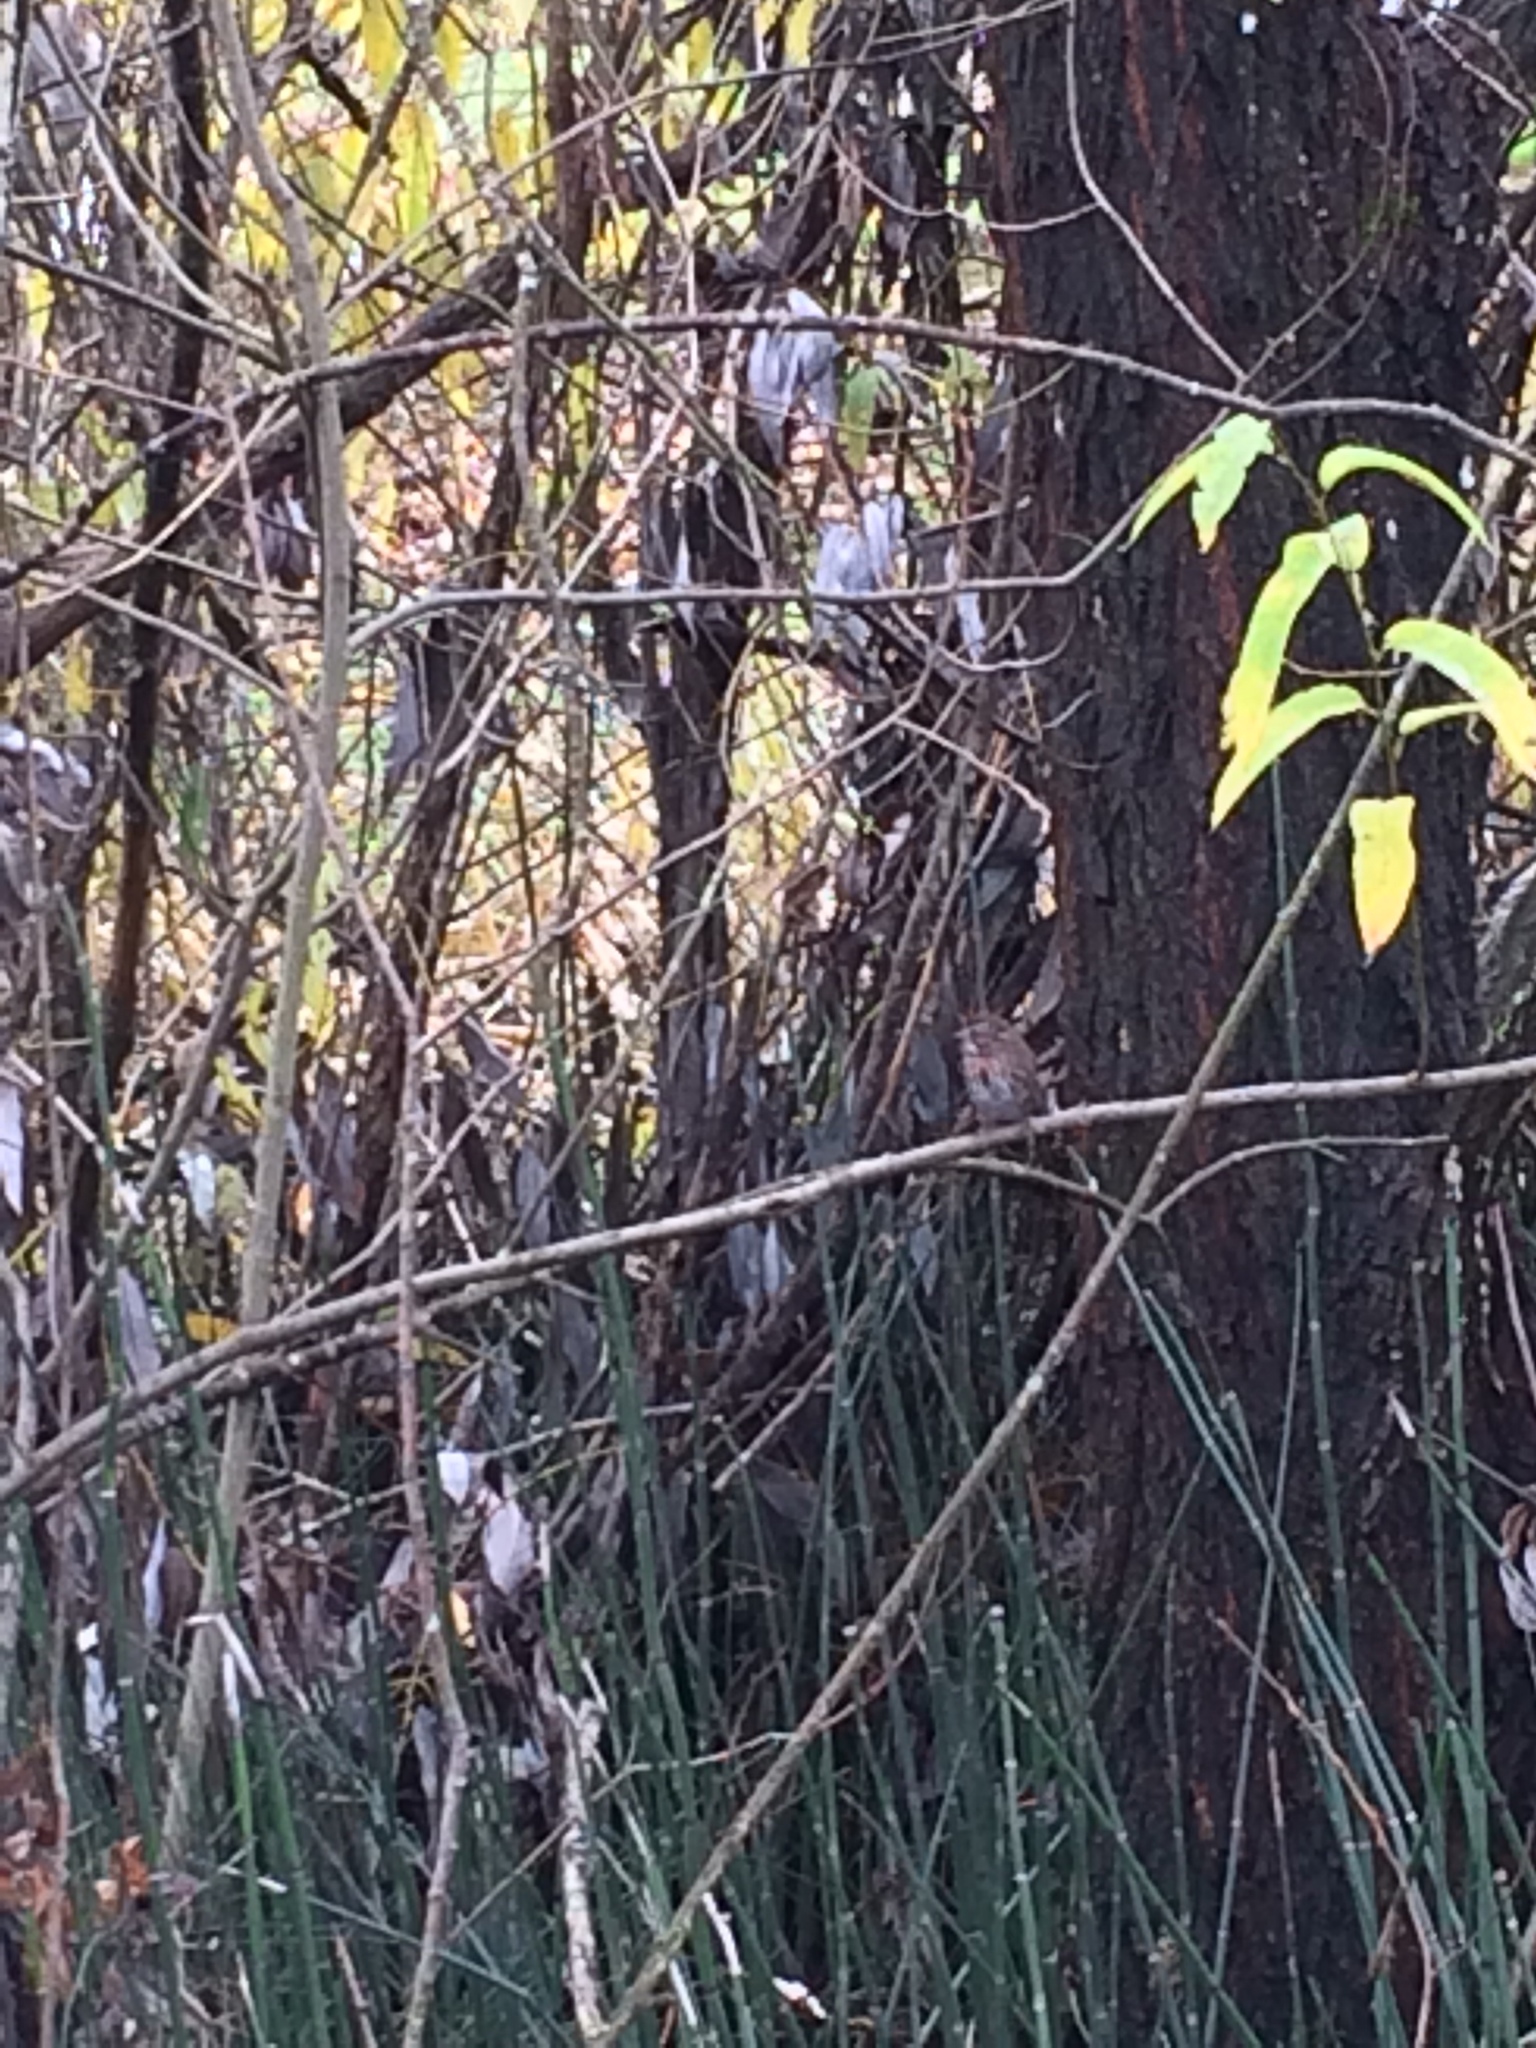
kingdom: Animalia
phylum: Chordata
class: Aves
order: Passeriformes
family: Passerellidae
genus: Melospiza
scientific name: Melospiza melodia
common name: Song sparrow
